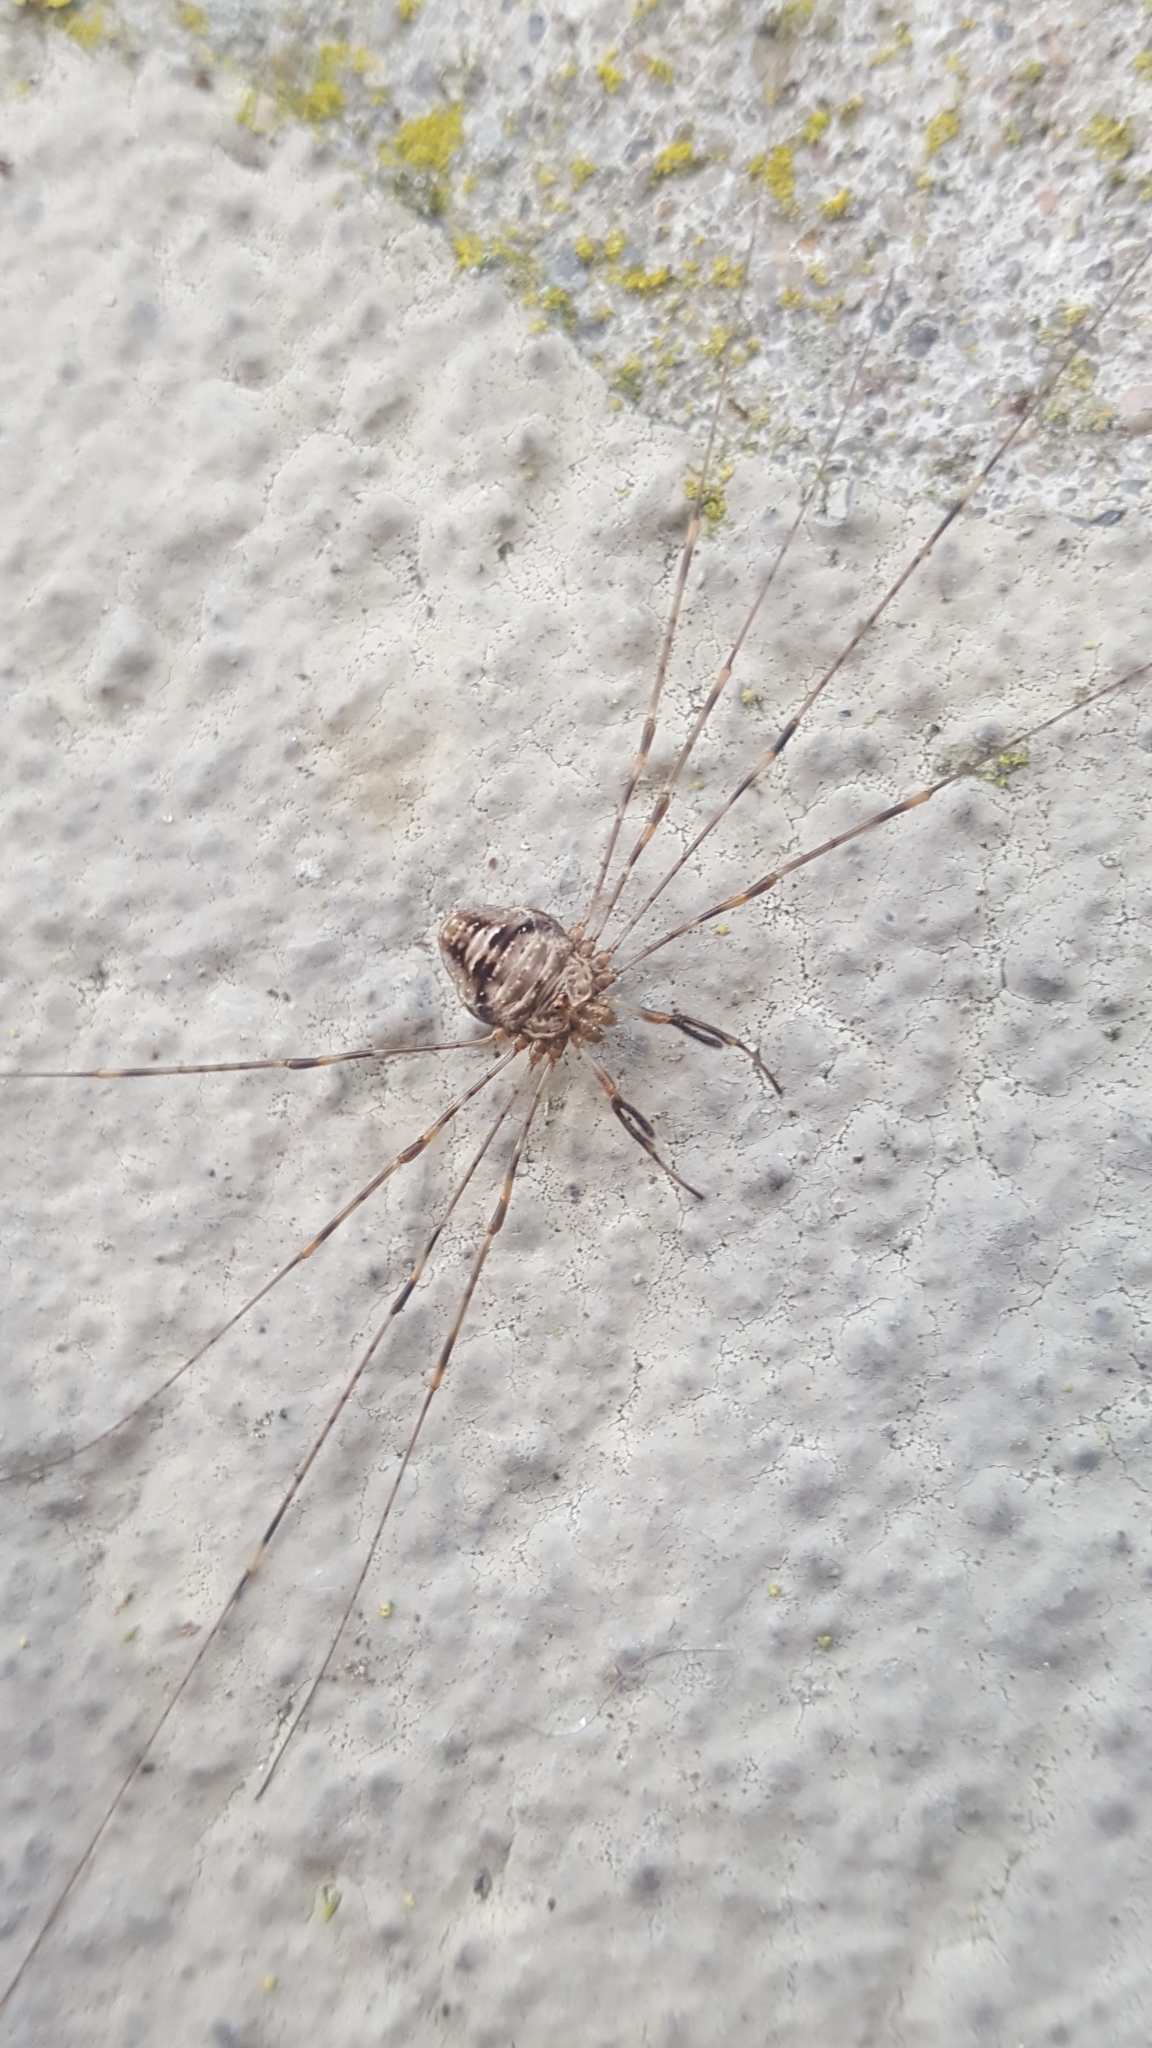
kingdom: Animalia
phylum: Arthropoda
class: Arachnida
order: Opiliones
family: Phalangiidae
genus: Dicranopalpus
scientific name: Dicranopalpus ramosus
